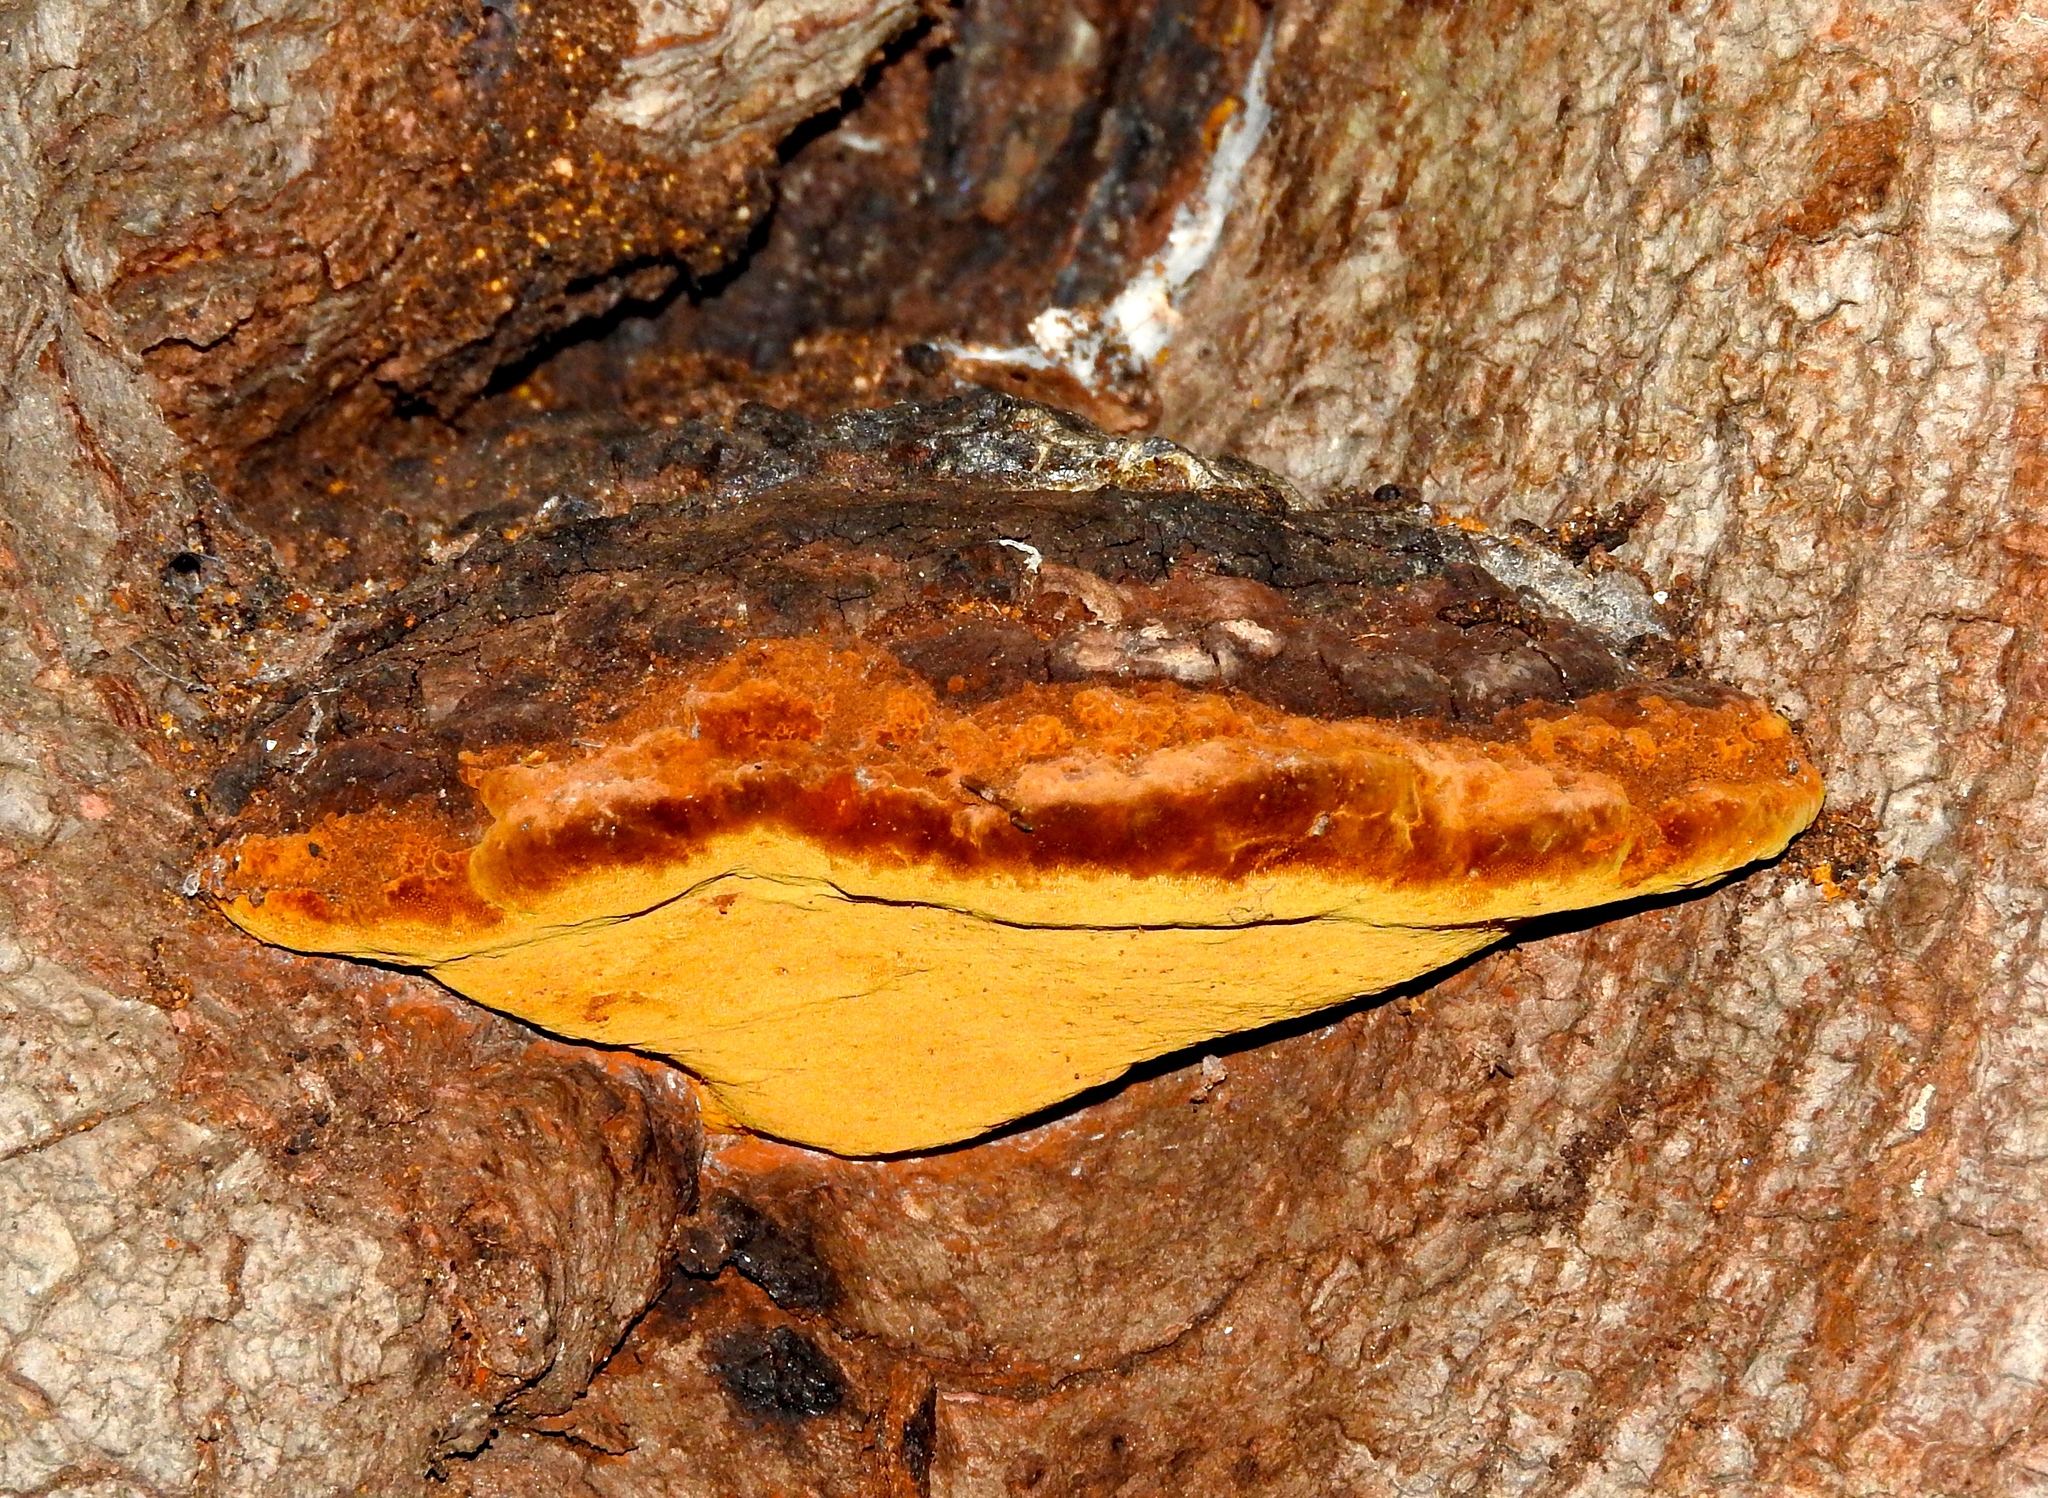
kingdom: Fungi
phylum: Basidiomycota
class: Agaricomycetes
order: Hymenochaetales
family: Hymenochaetaceae
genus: Phellinus
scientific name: Phellinus
